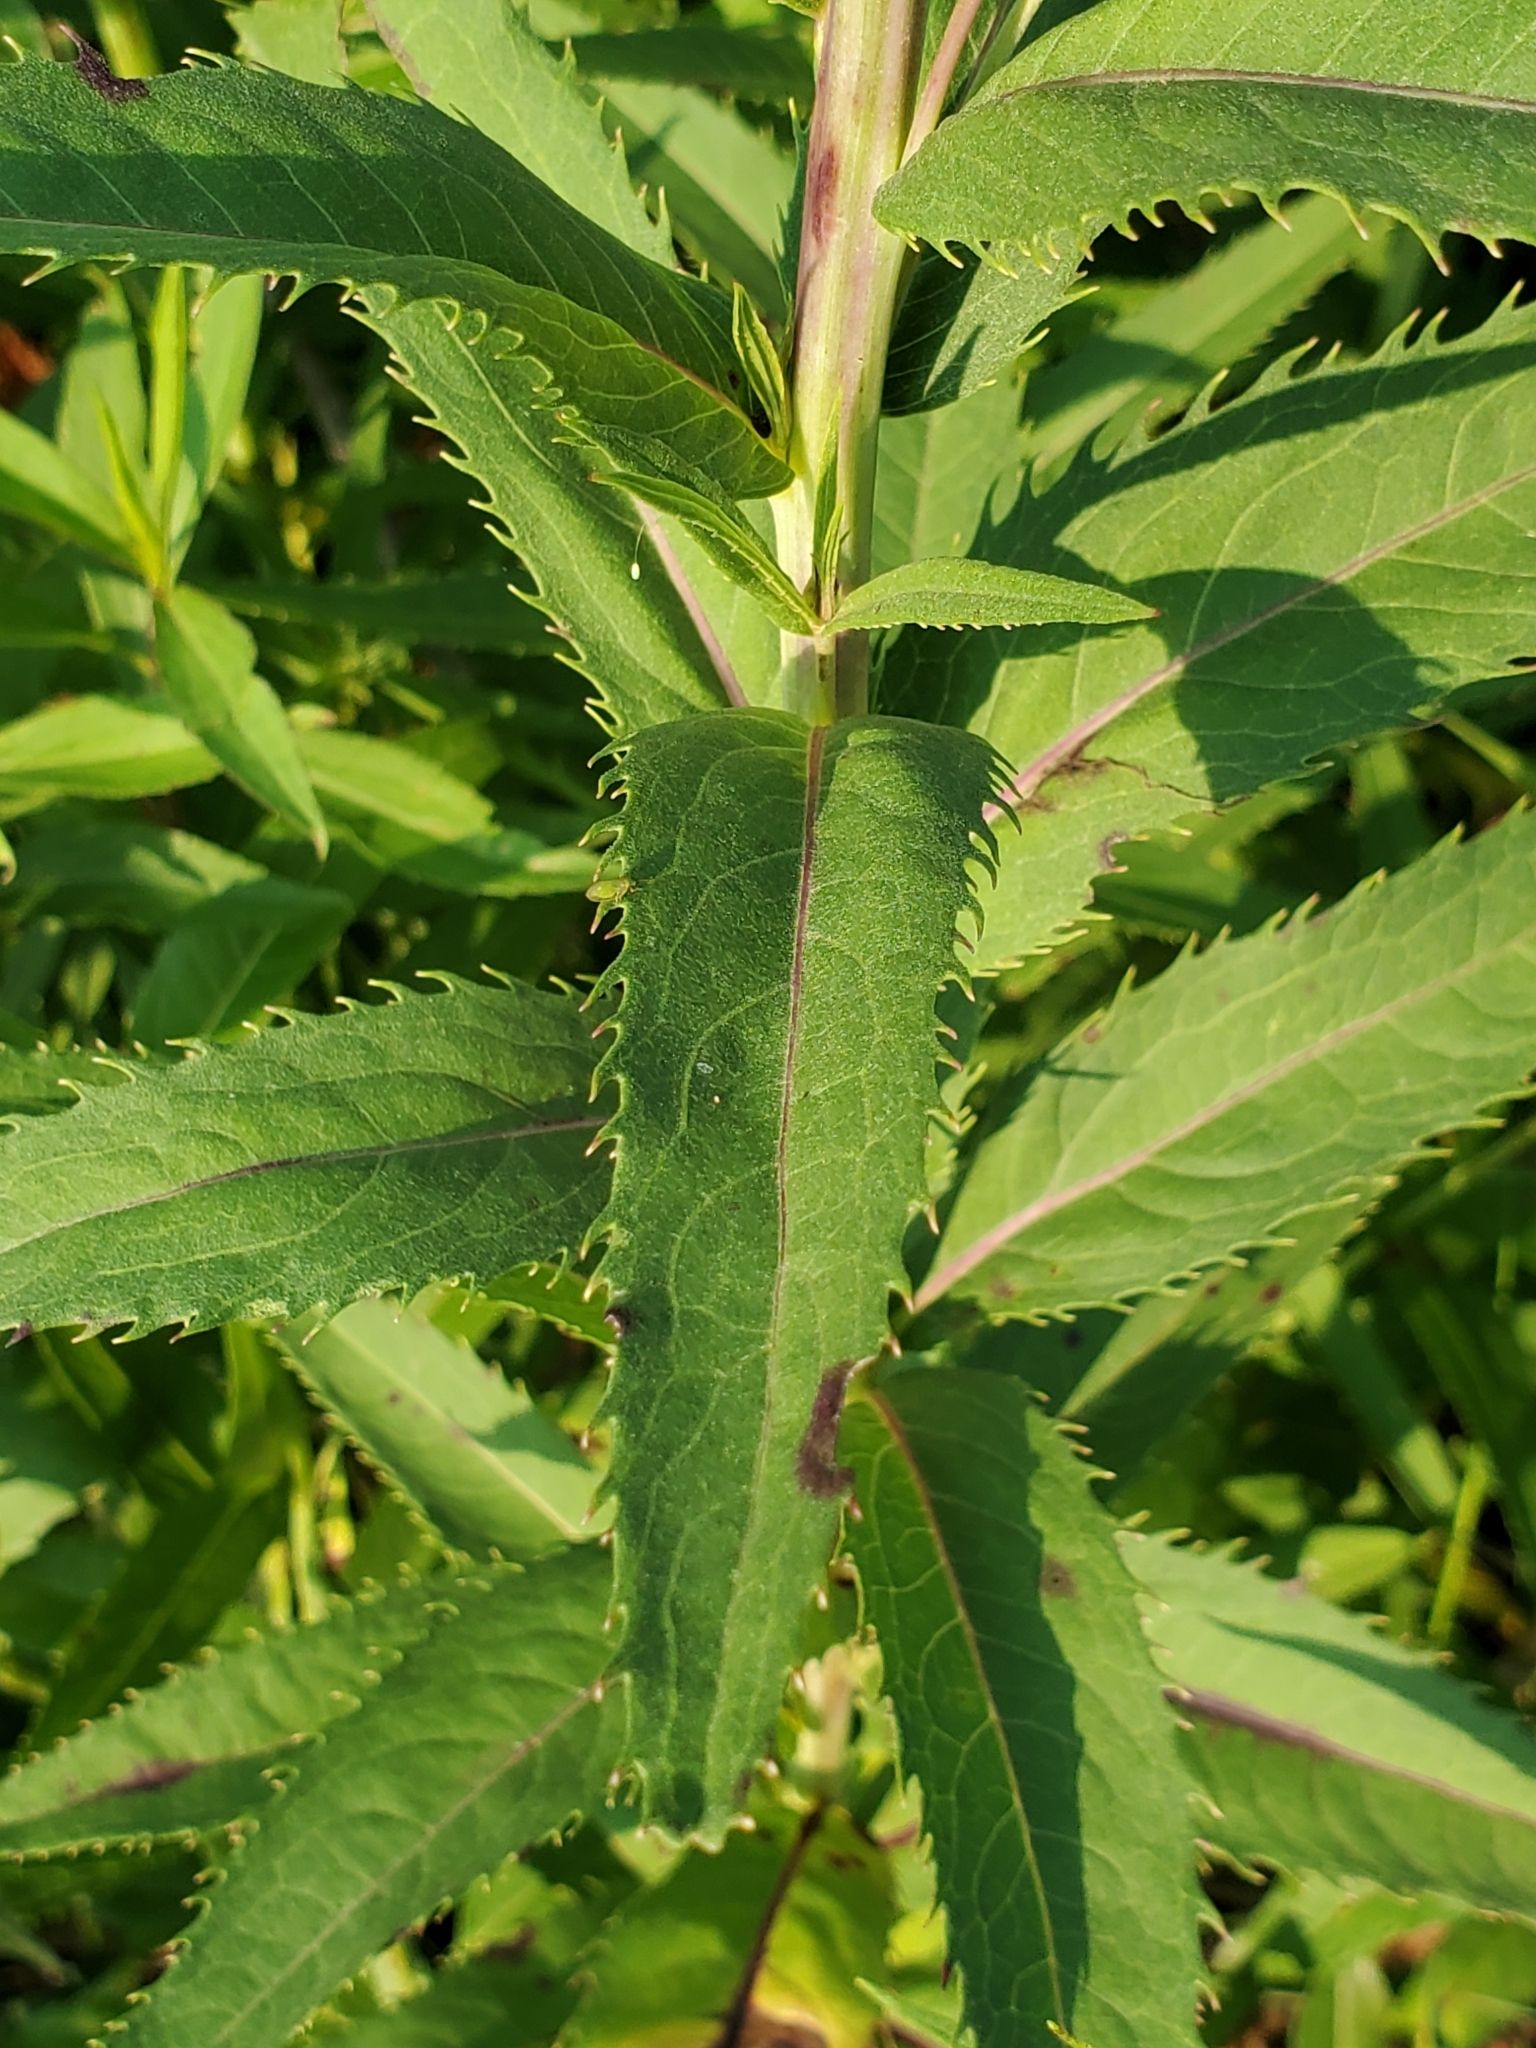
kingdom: Plantae
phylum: Tracheophyta
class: Magnoliopsida
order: Asterales
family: Asteraceae
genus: Vernonia
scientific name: Vernonia fasciculata
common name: Fascicled ironweed
